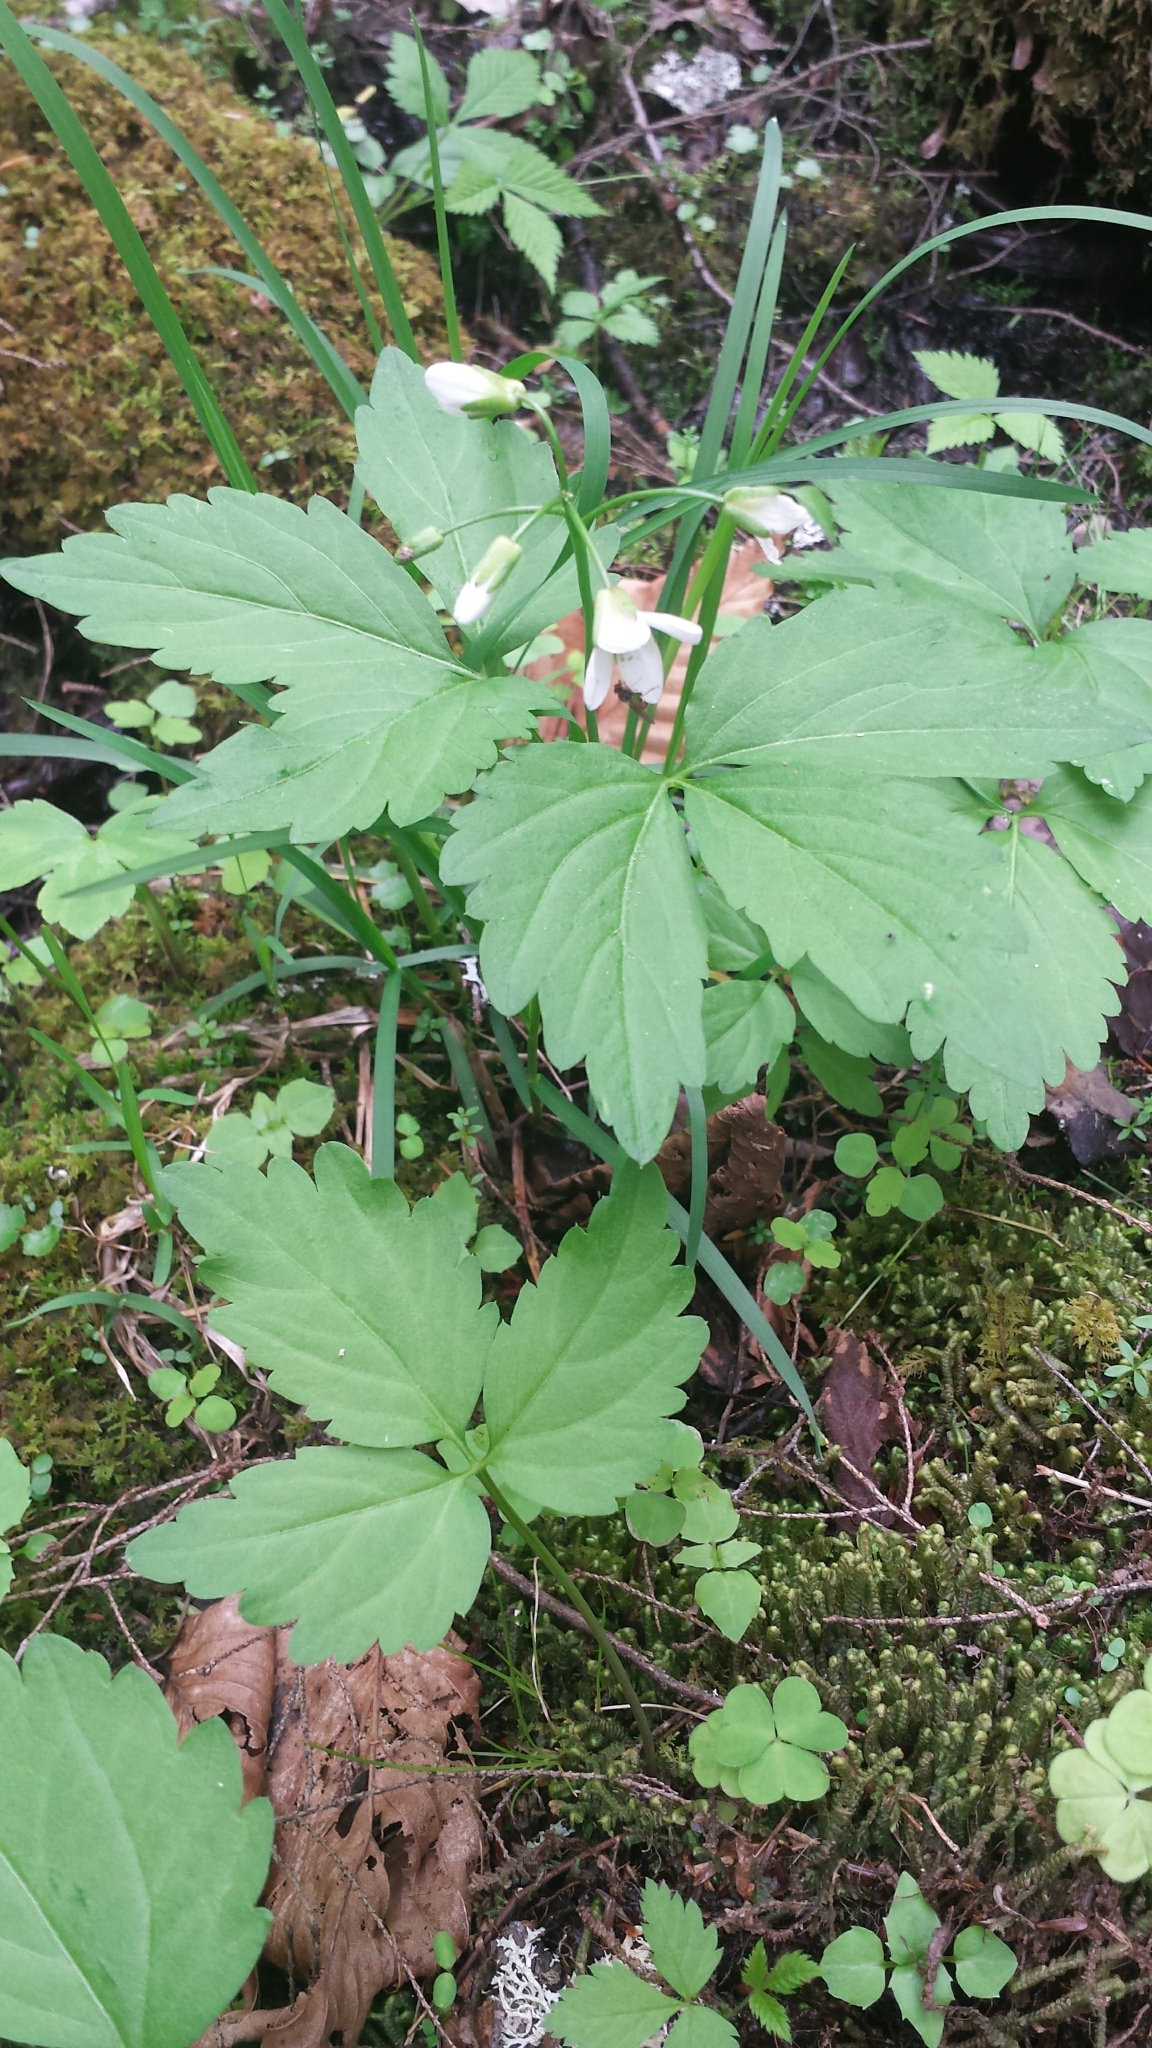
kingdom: Plantae
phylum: Tracheophyta
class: Magnoliopsida
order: Brassicales
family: Brassicaceae
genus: Cardamine
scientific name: Cardamine diphylla
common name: Broad-leaved toothwort
